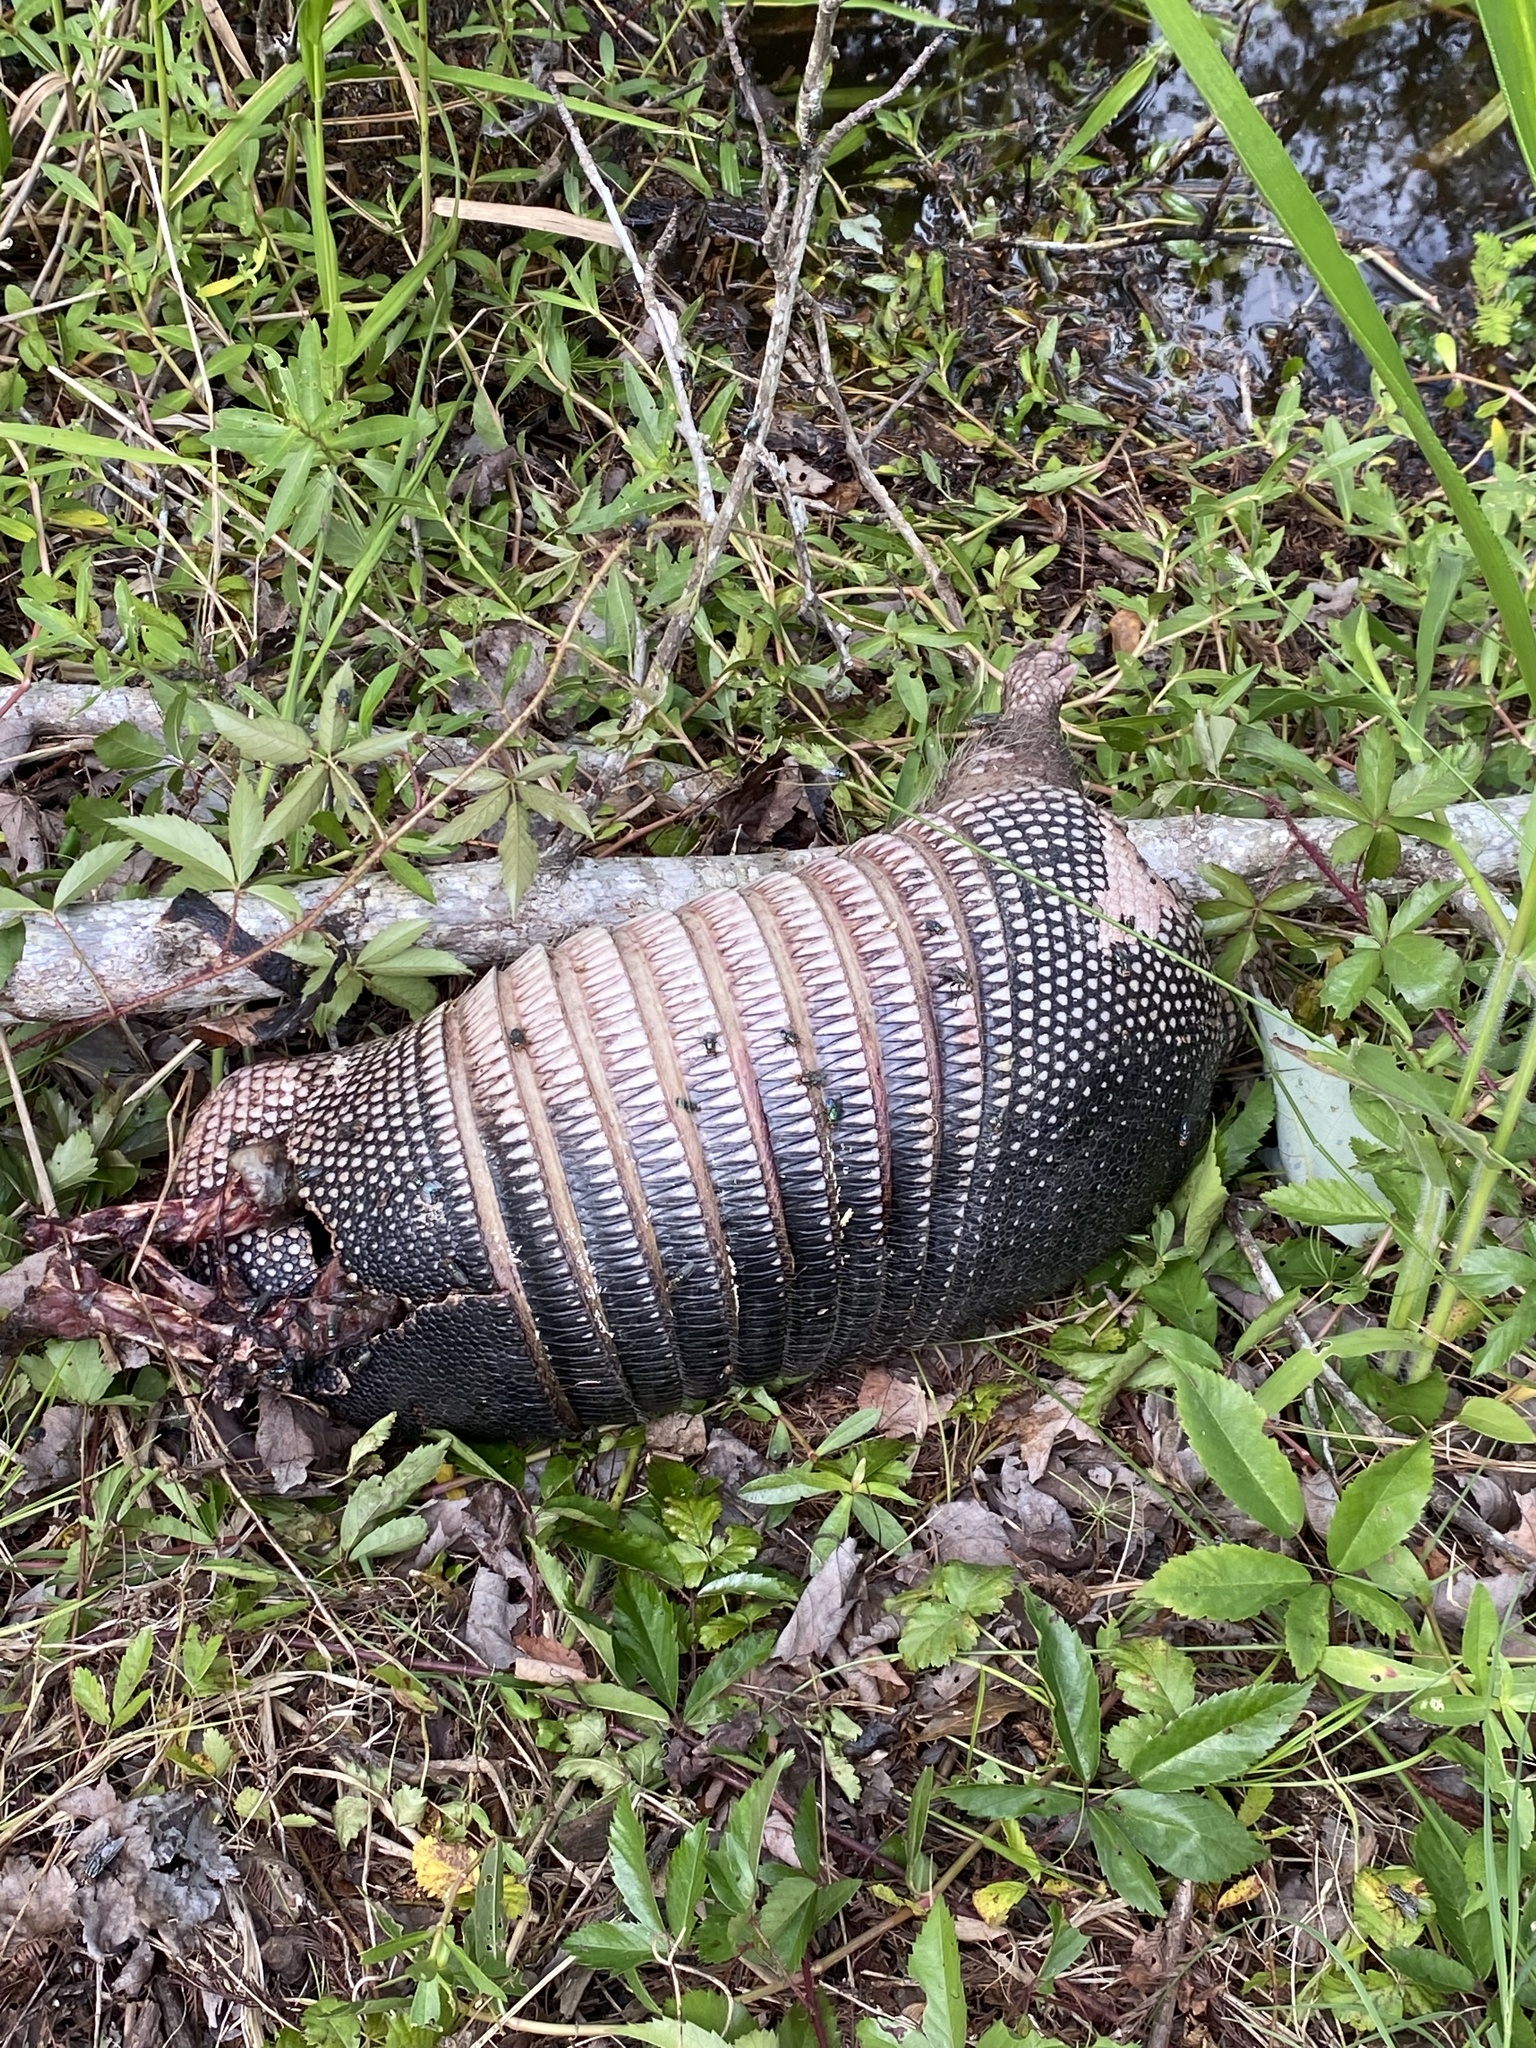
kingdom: Animalia
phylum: Chordata
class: Mammalia
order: Cingulata
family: Dasypodidae
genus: Dasypus
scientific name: Dasypus novemcinctus
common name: Nine-banded armadillo
